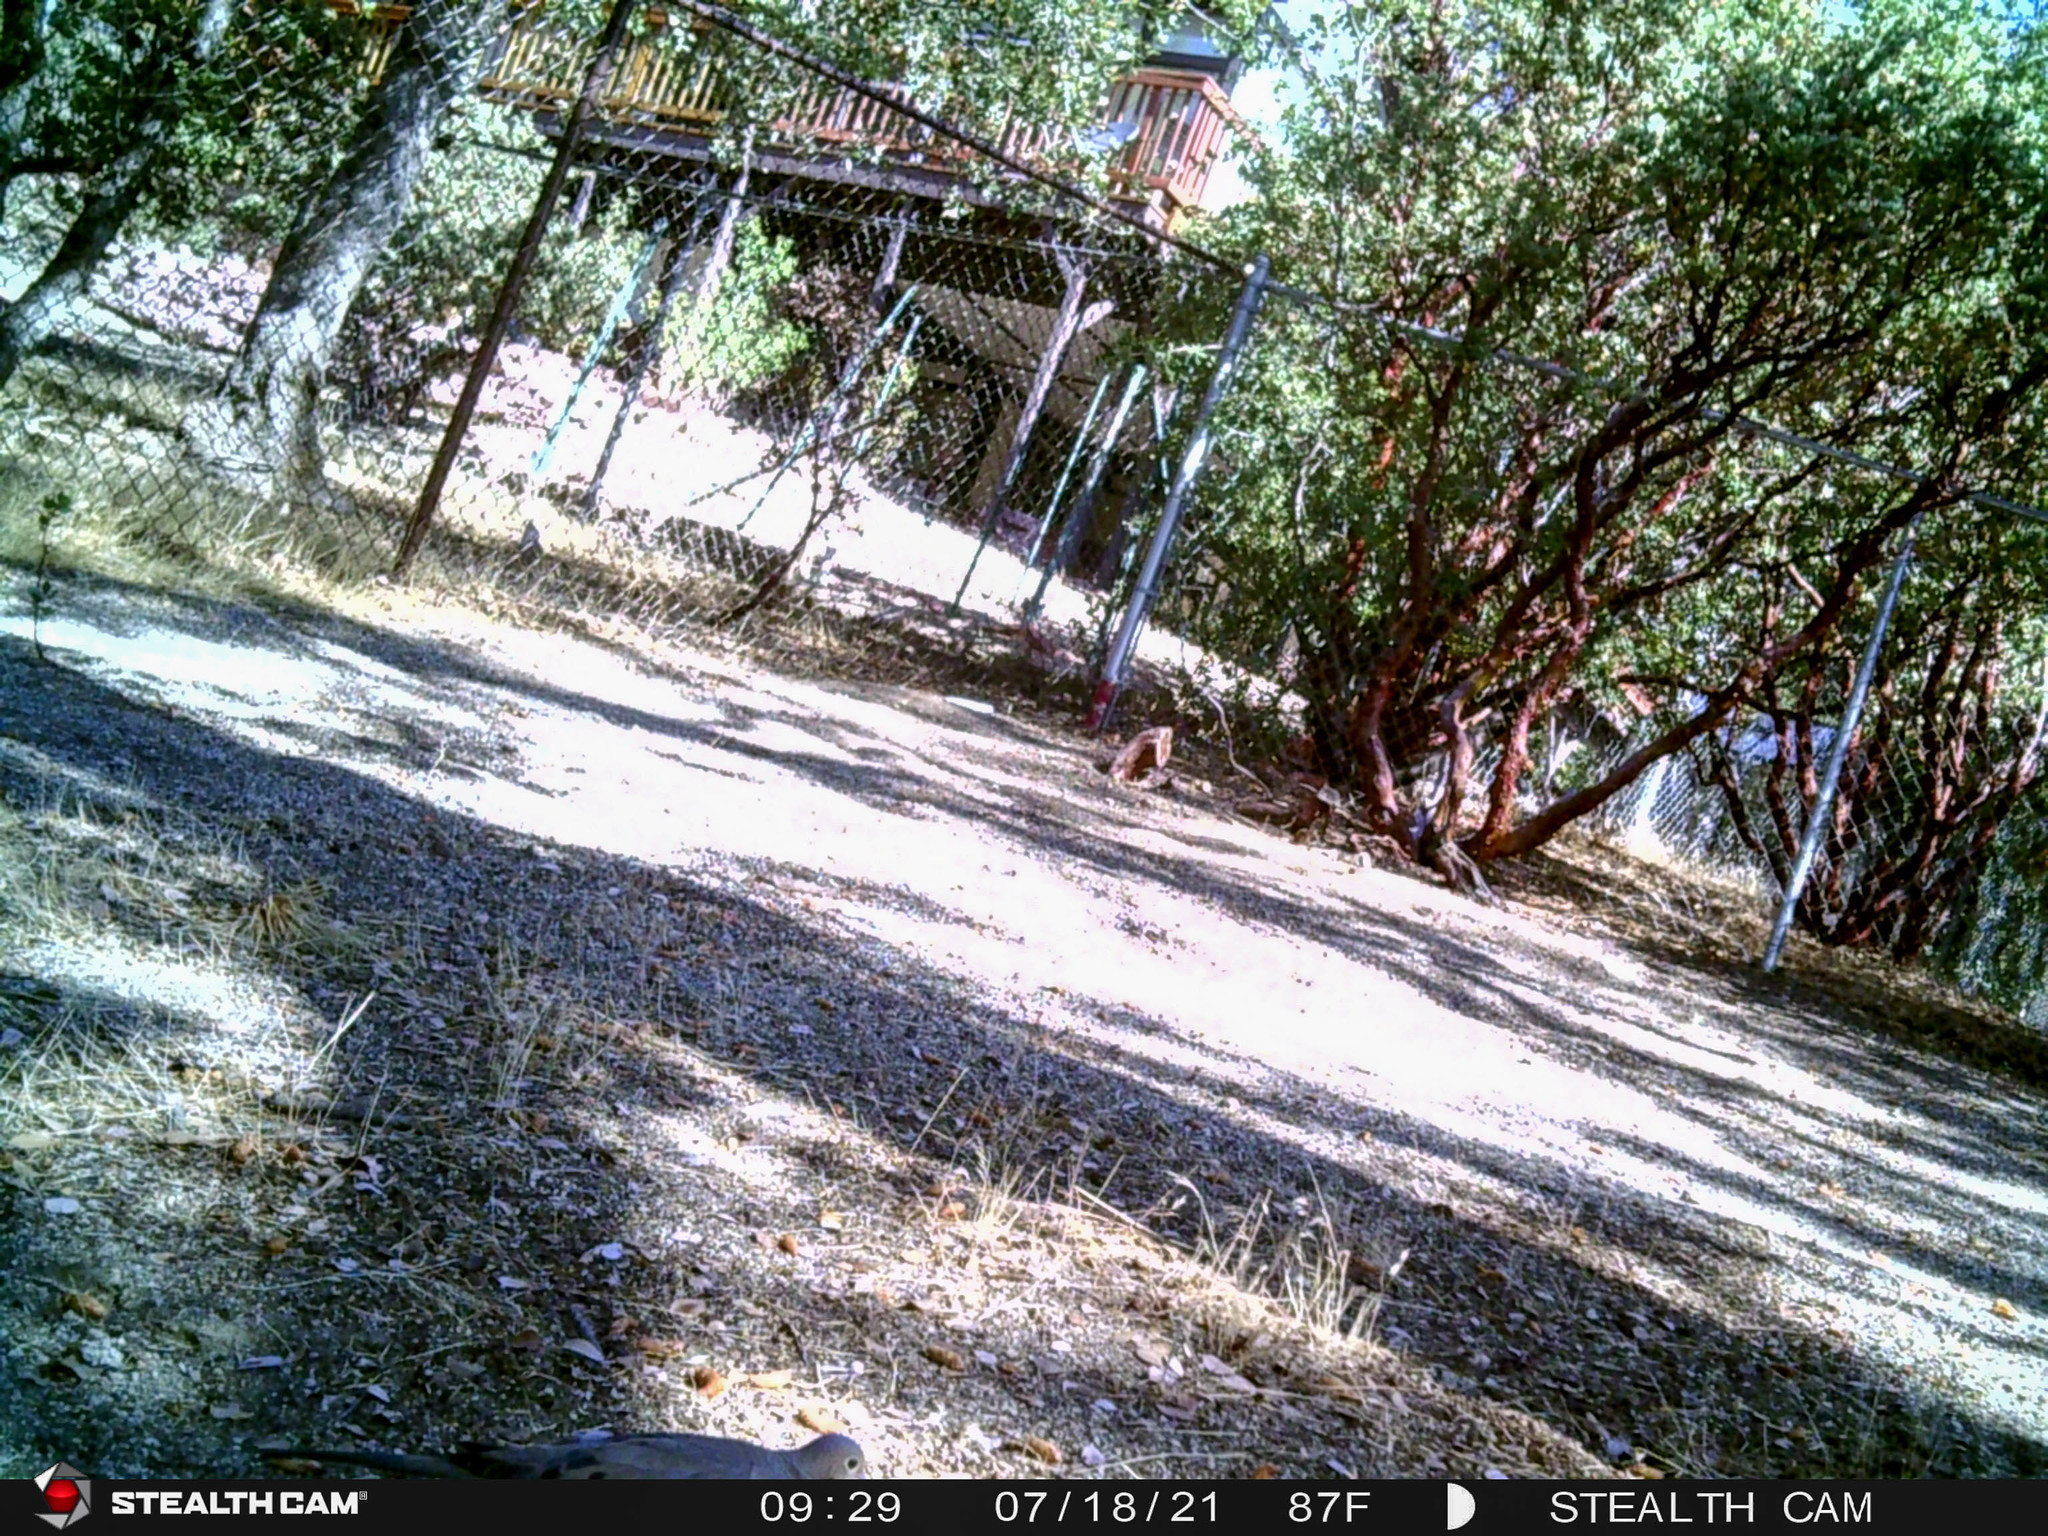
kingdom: Animalia
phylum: Chordata
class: Aves
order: Columbiformes
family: Columbidae
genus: Zenaida
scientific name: Zenaida macroura
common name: Mourning dove
